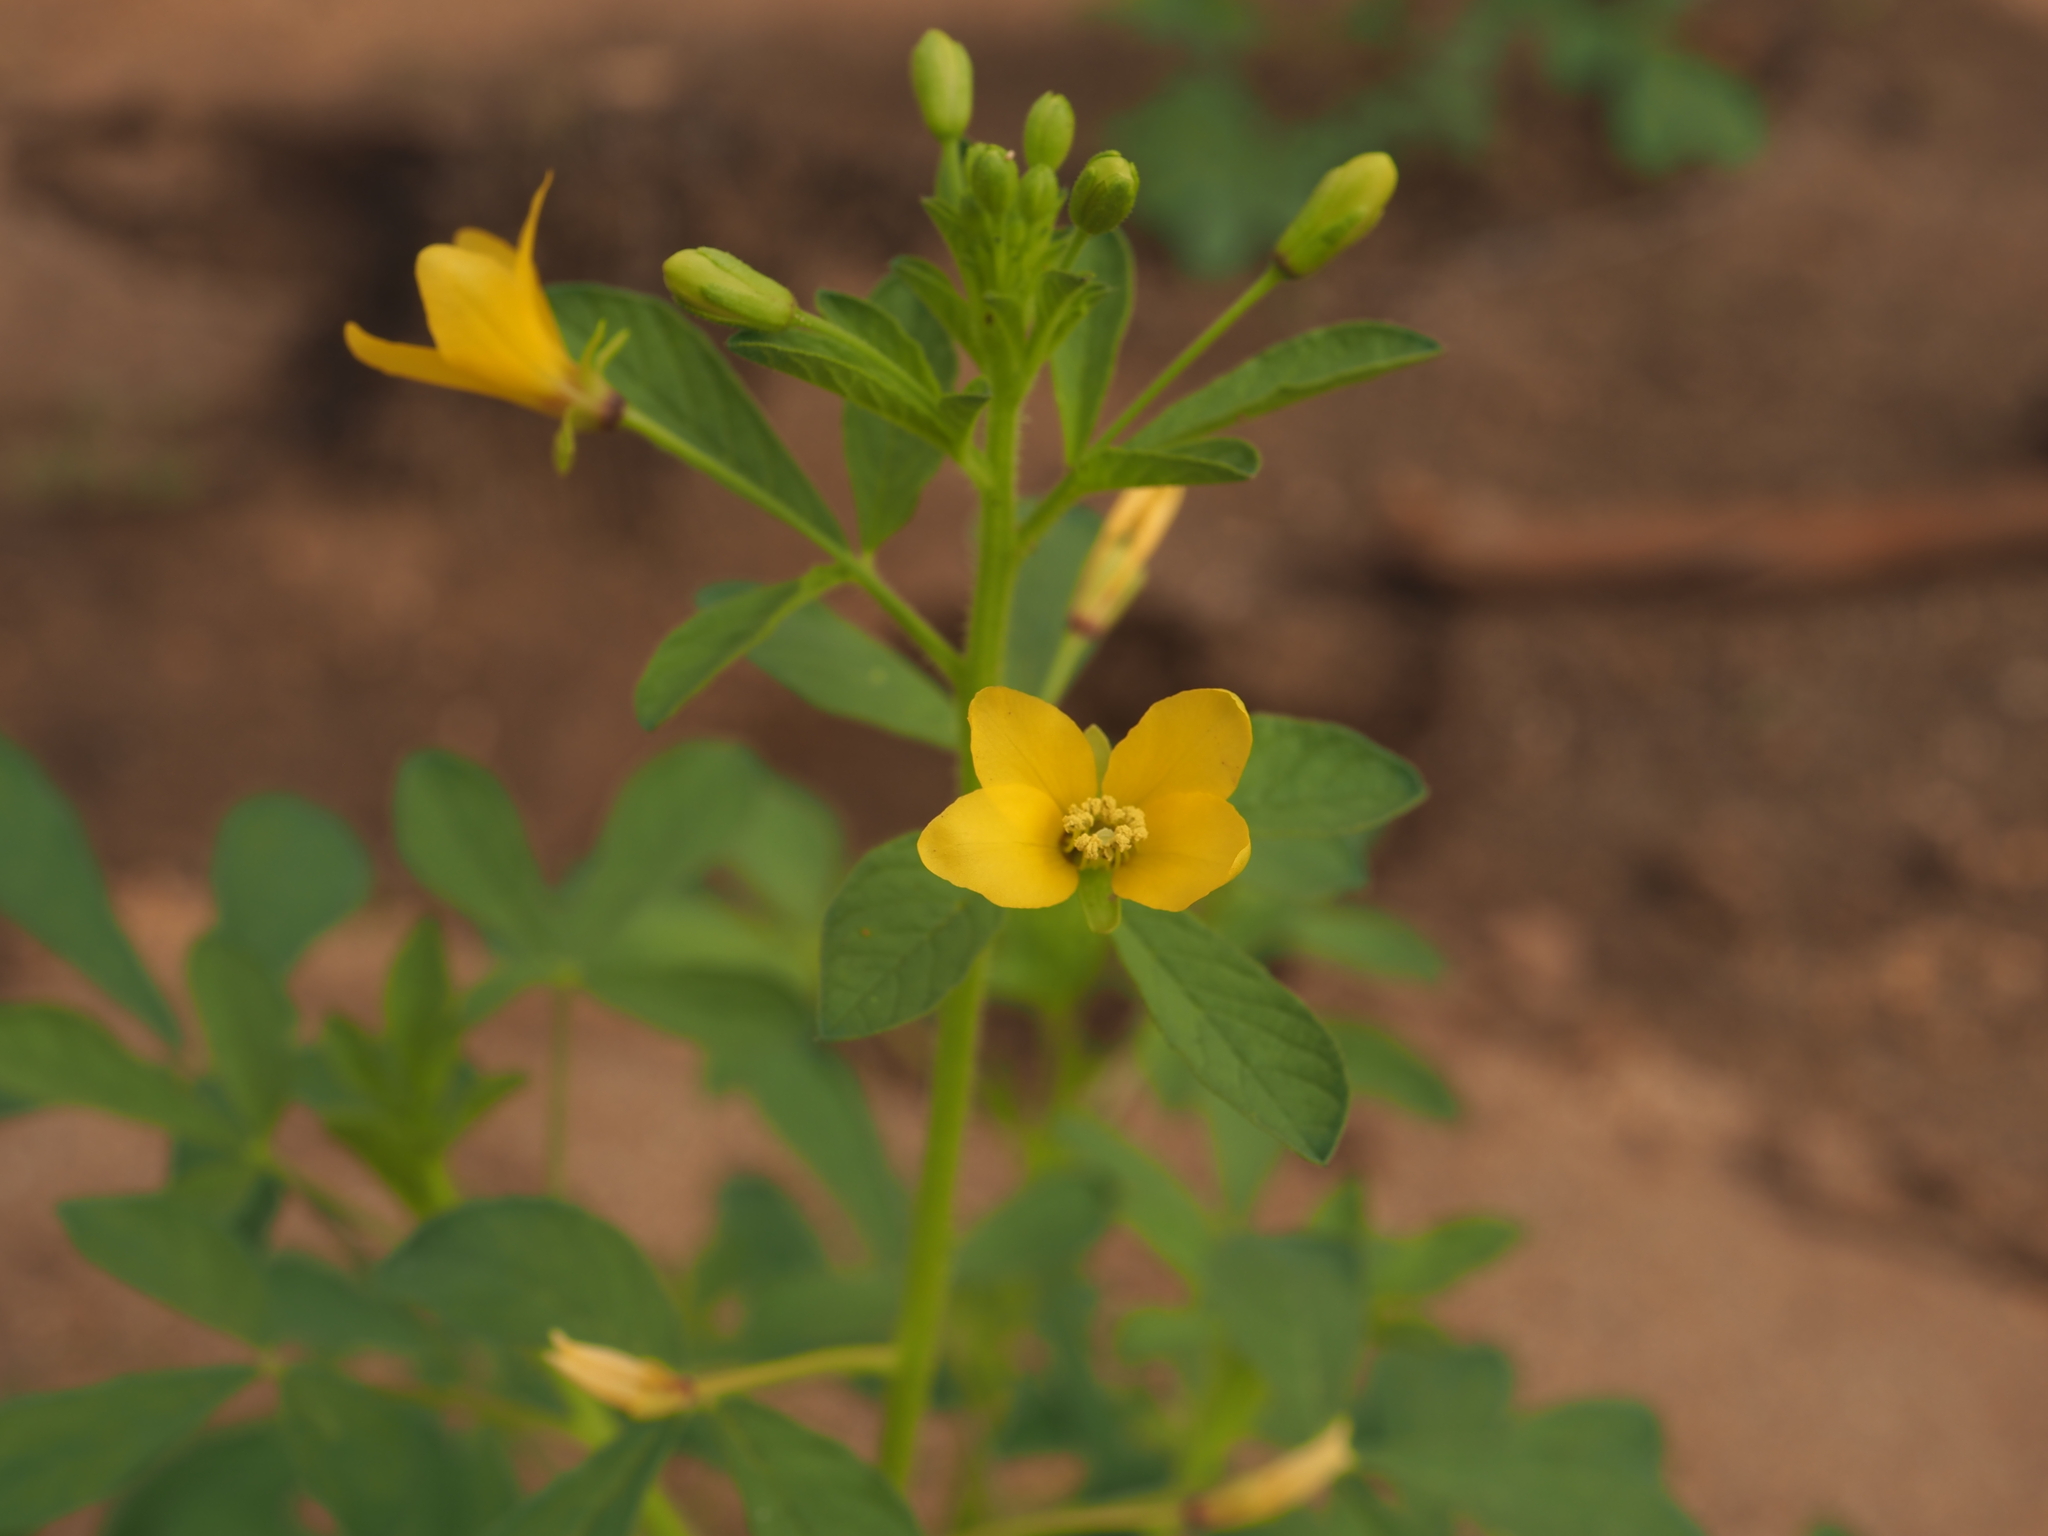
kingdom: Plantae
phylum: Tracheophyta
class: Magnoliopsida
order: Brassicales
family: Cleomaceae
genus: Arivela
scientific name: Arivela viscosa
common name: Asian spiderflower
